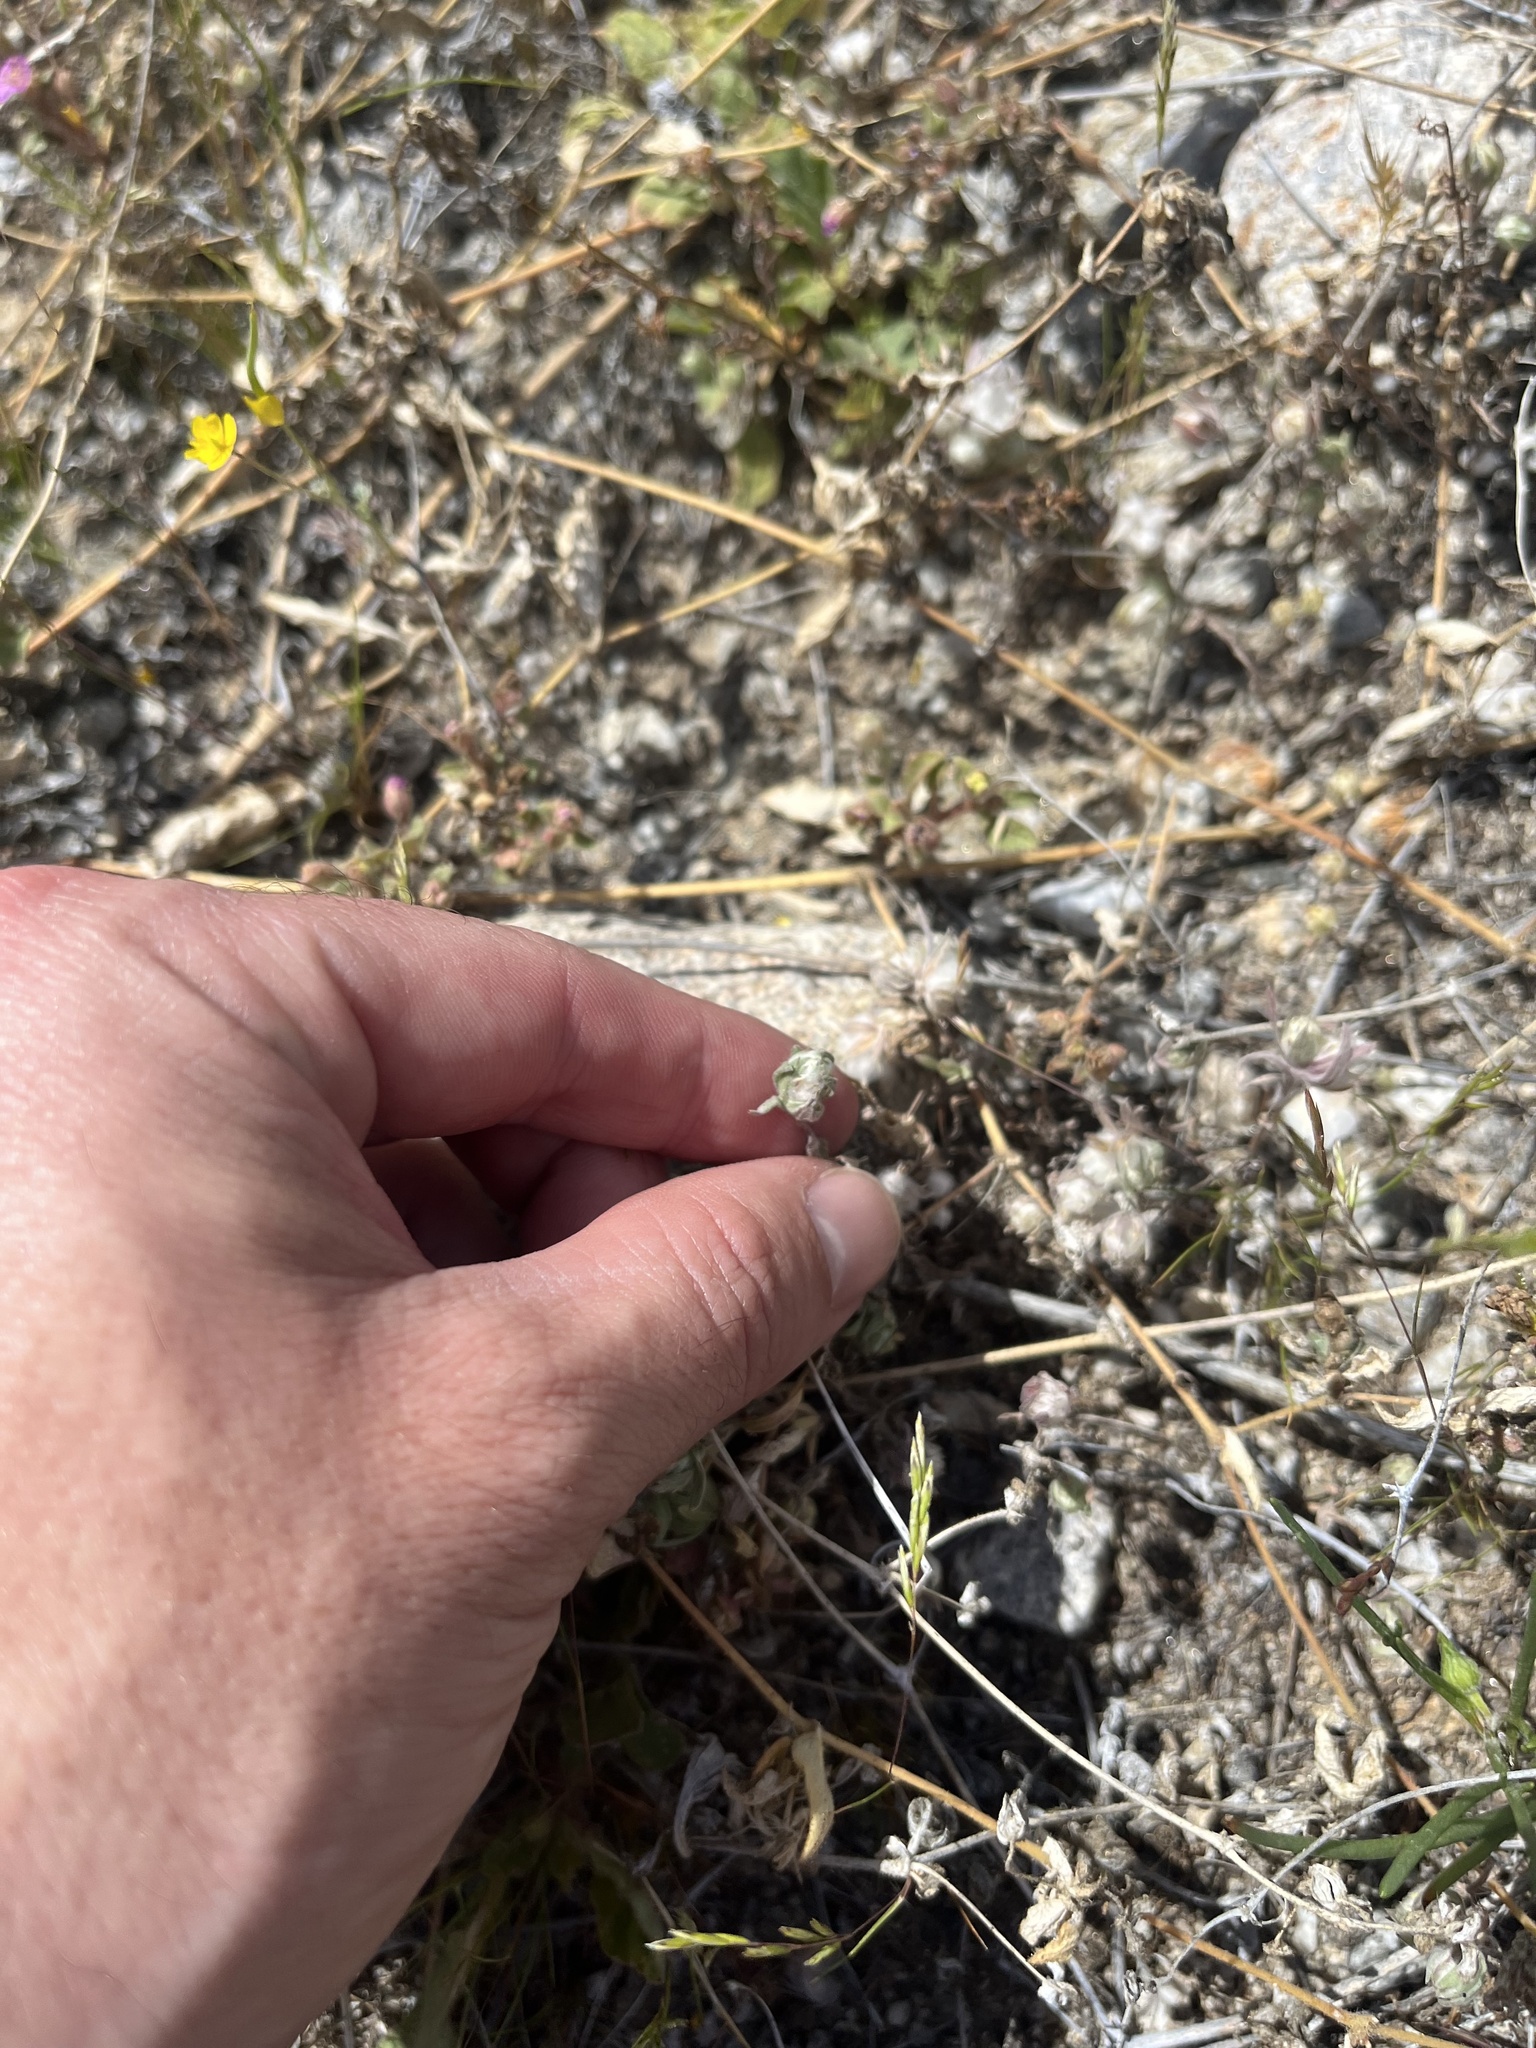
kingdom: Plantae
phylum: Tracheophyta
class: Magnoliopsida
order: Asterales
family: Asteraceae
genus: Stylocline
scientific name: Stylocline micropoides
